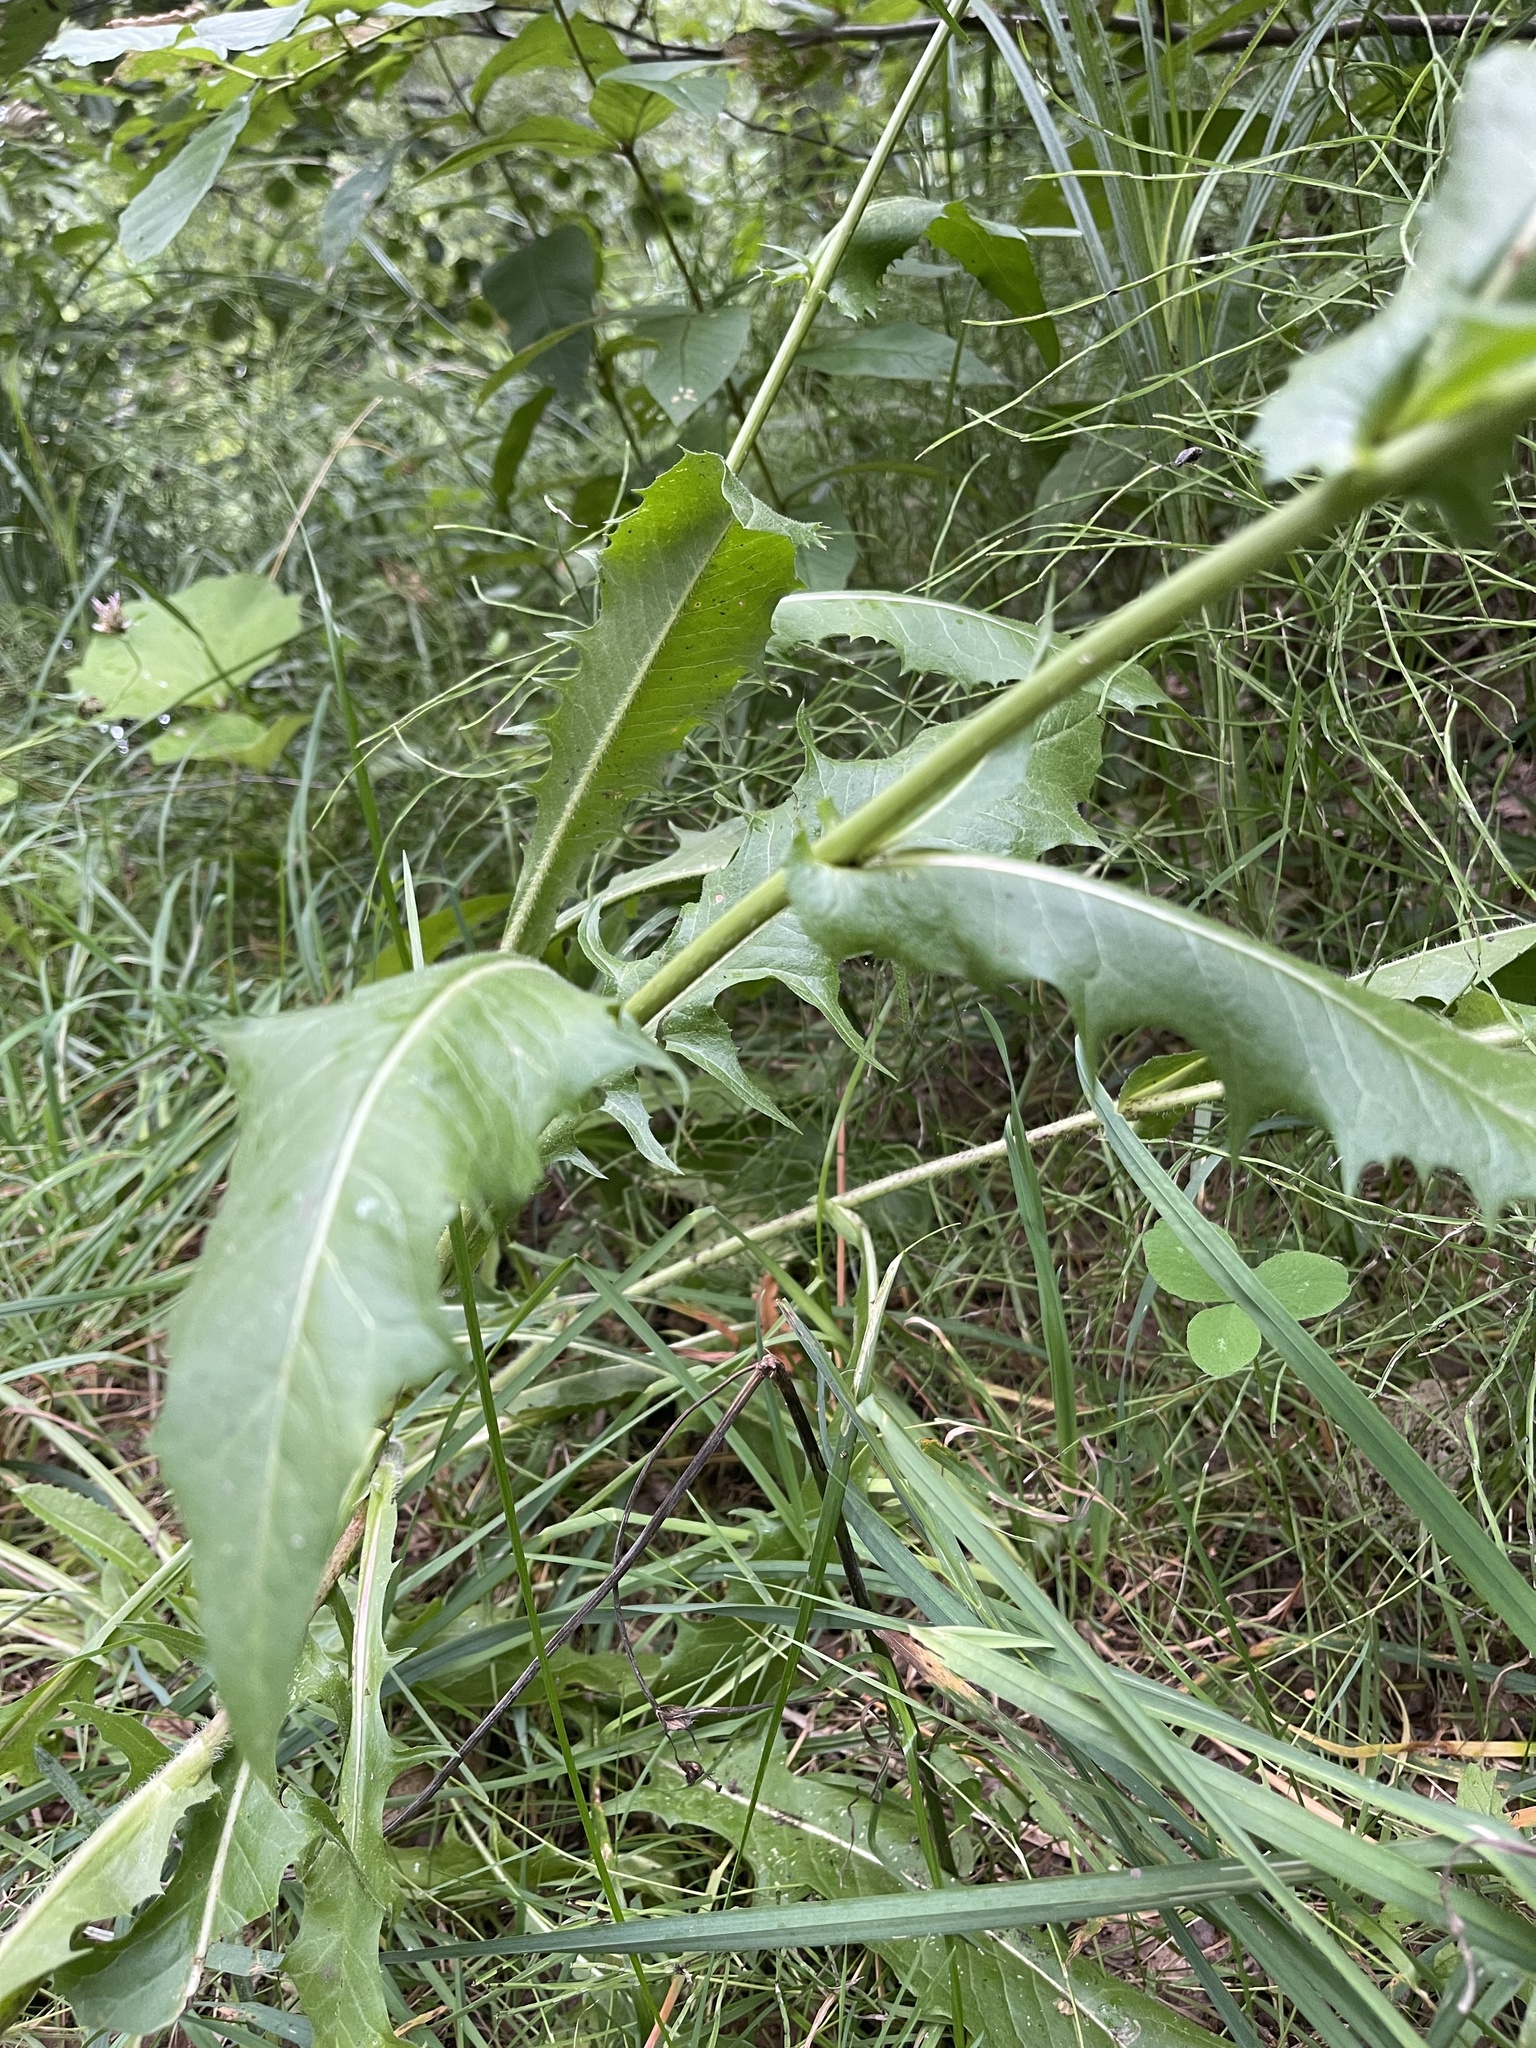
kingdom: Plantae
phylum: Tracheophyta
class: Magnoliopsida
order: Asterales
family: Asteraceae
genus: Cichorium
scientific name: Cichorium intybus
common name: Chicory
